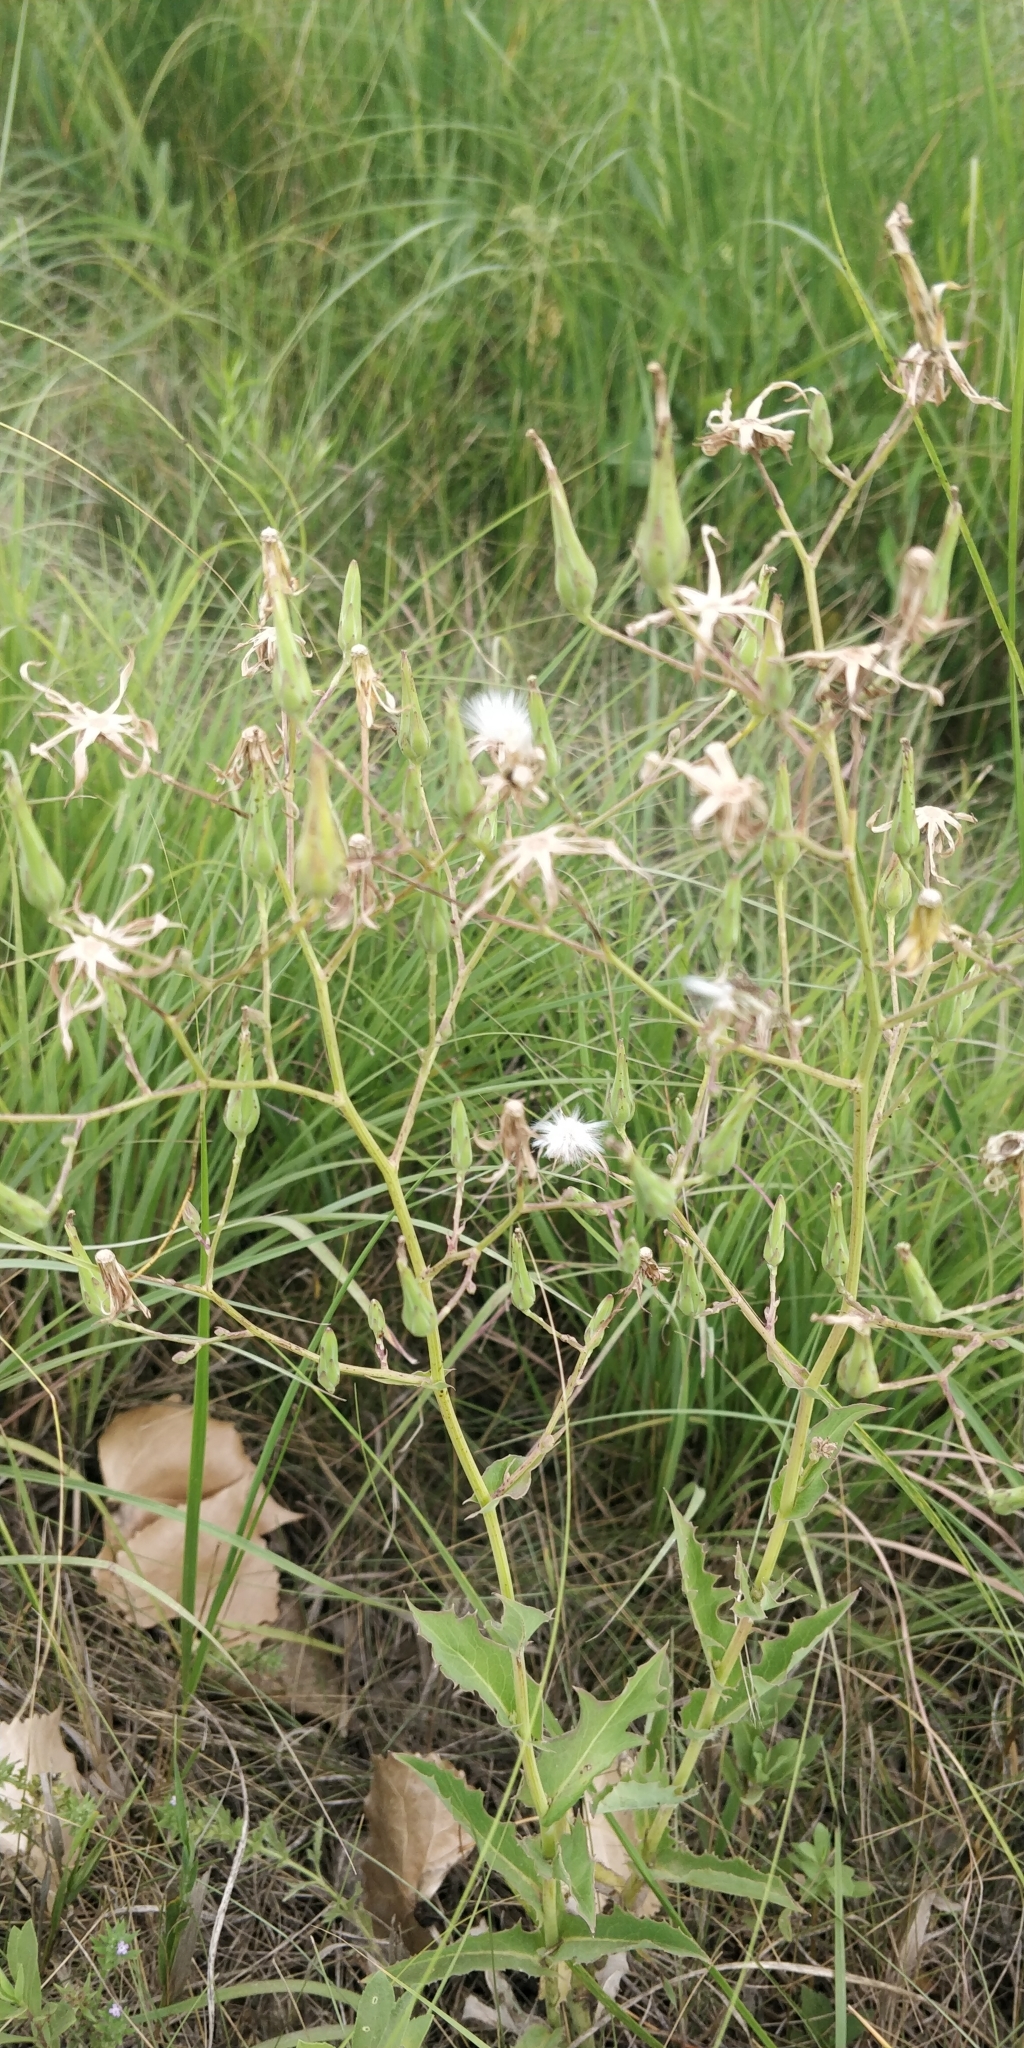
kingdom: Plantae
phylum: Tracheophyta
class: Magnoliopsida
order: Asterales
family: Asteraceae
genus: Lactuca
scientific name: Lactuca ludoviciana
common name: Louisiana lettuce
